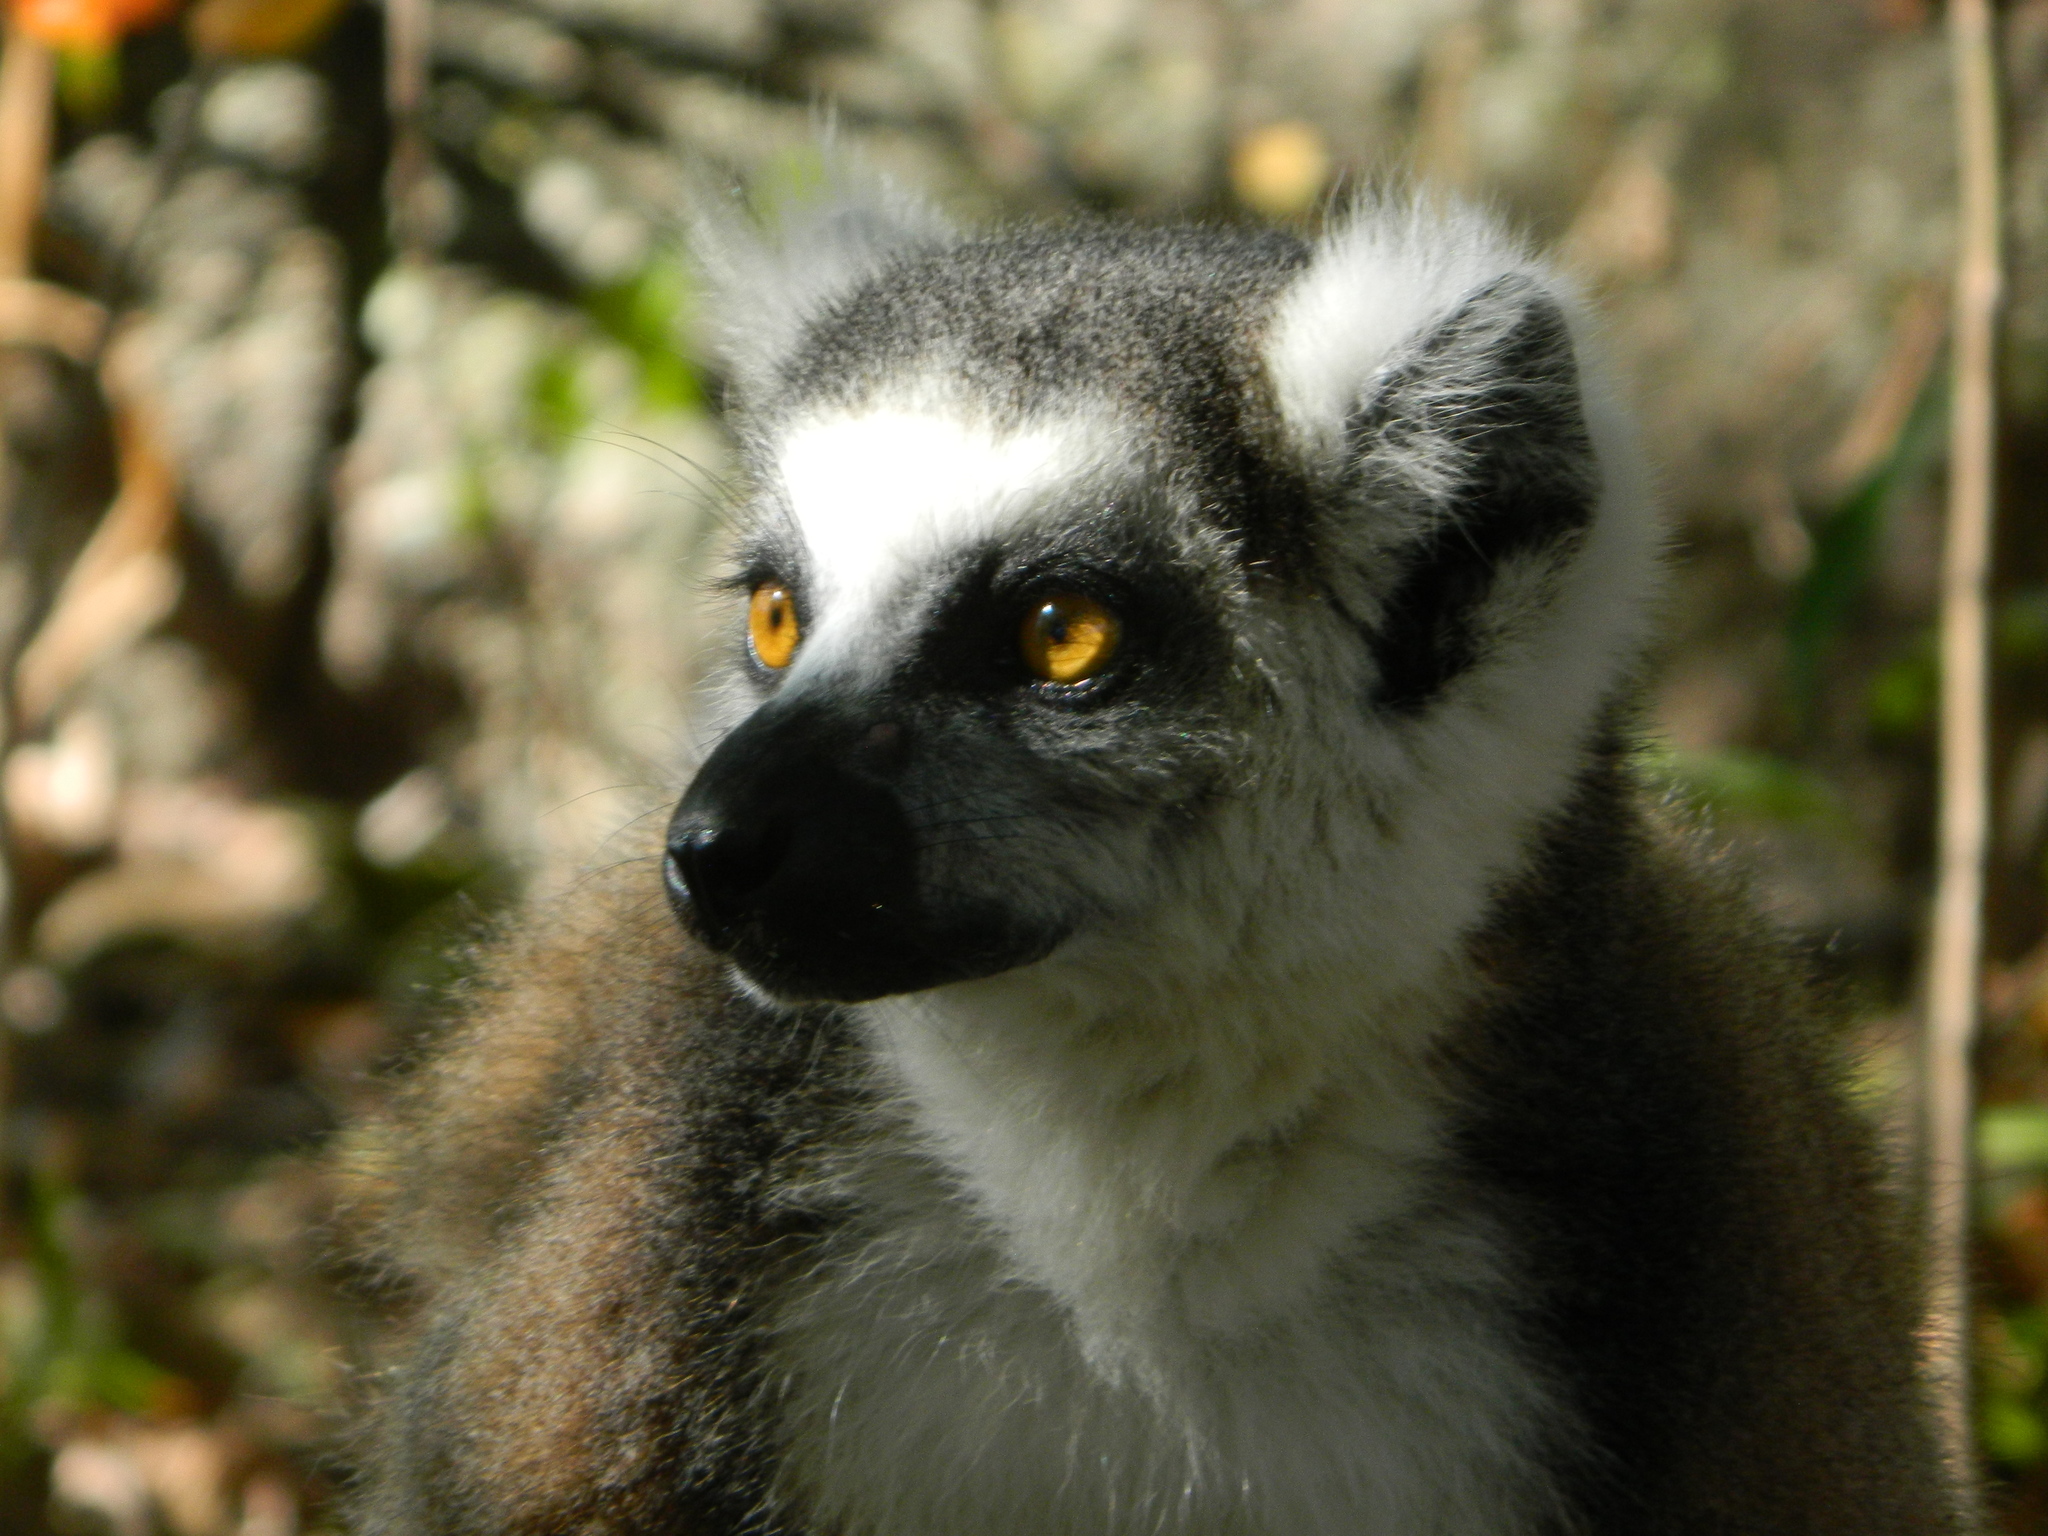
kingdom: Animalia
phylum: Chordata
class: Mammalia
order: Primates
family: Lemuridae
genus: Lemur
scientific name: Lemur catta
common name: Ring-tailed lemur
